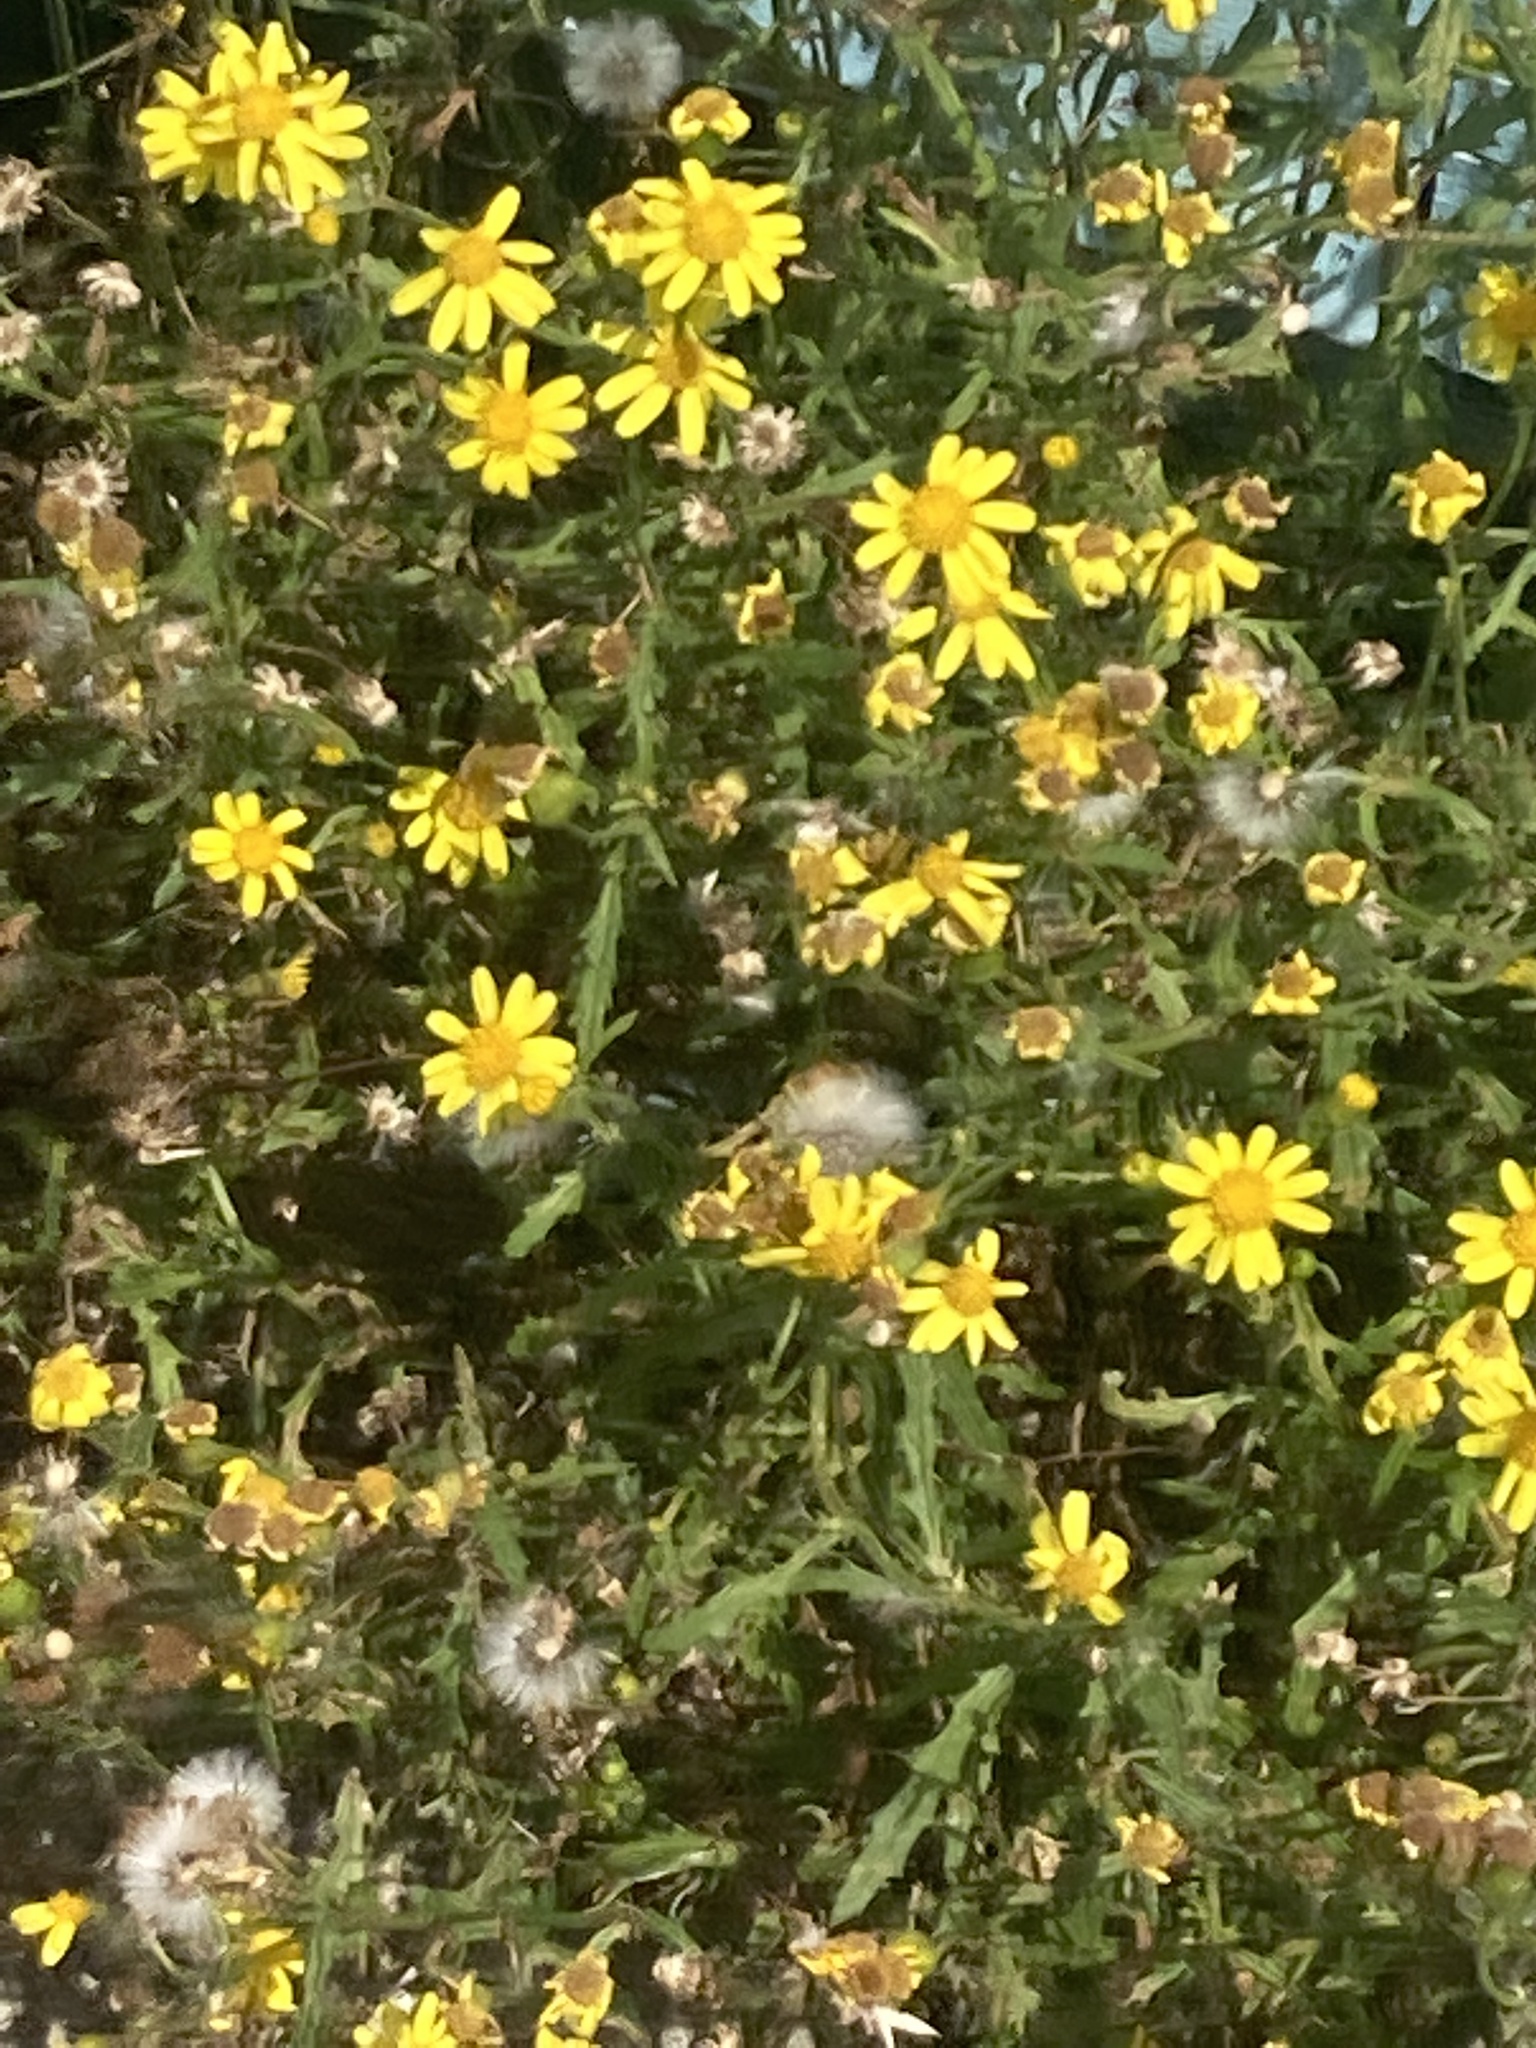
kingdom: Plantae
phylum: Tracheophyta
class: Magnoliopsida
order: Asterales
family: Asteraceae
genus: Senecio
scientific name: Senecio squalidus
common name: Oxford ragwort
